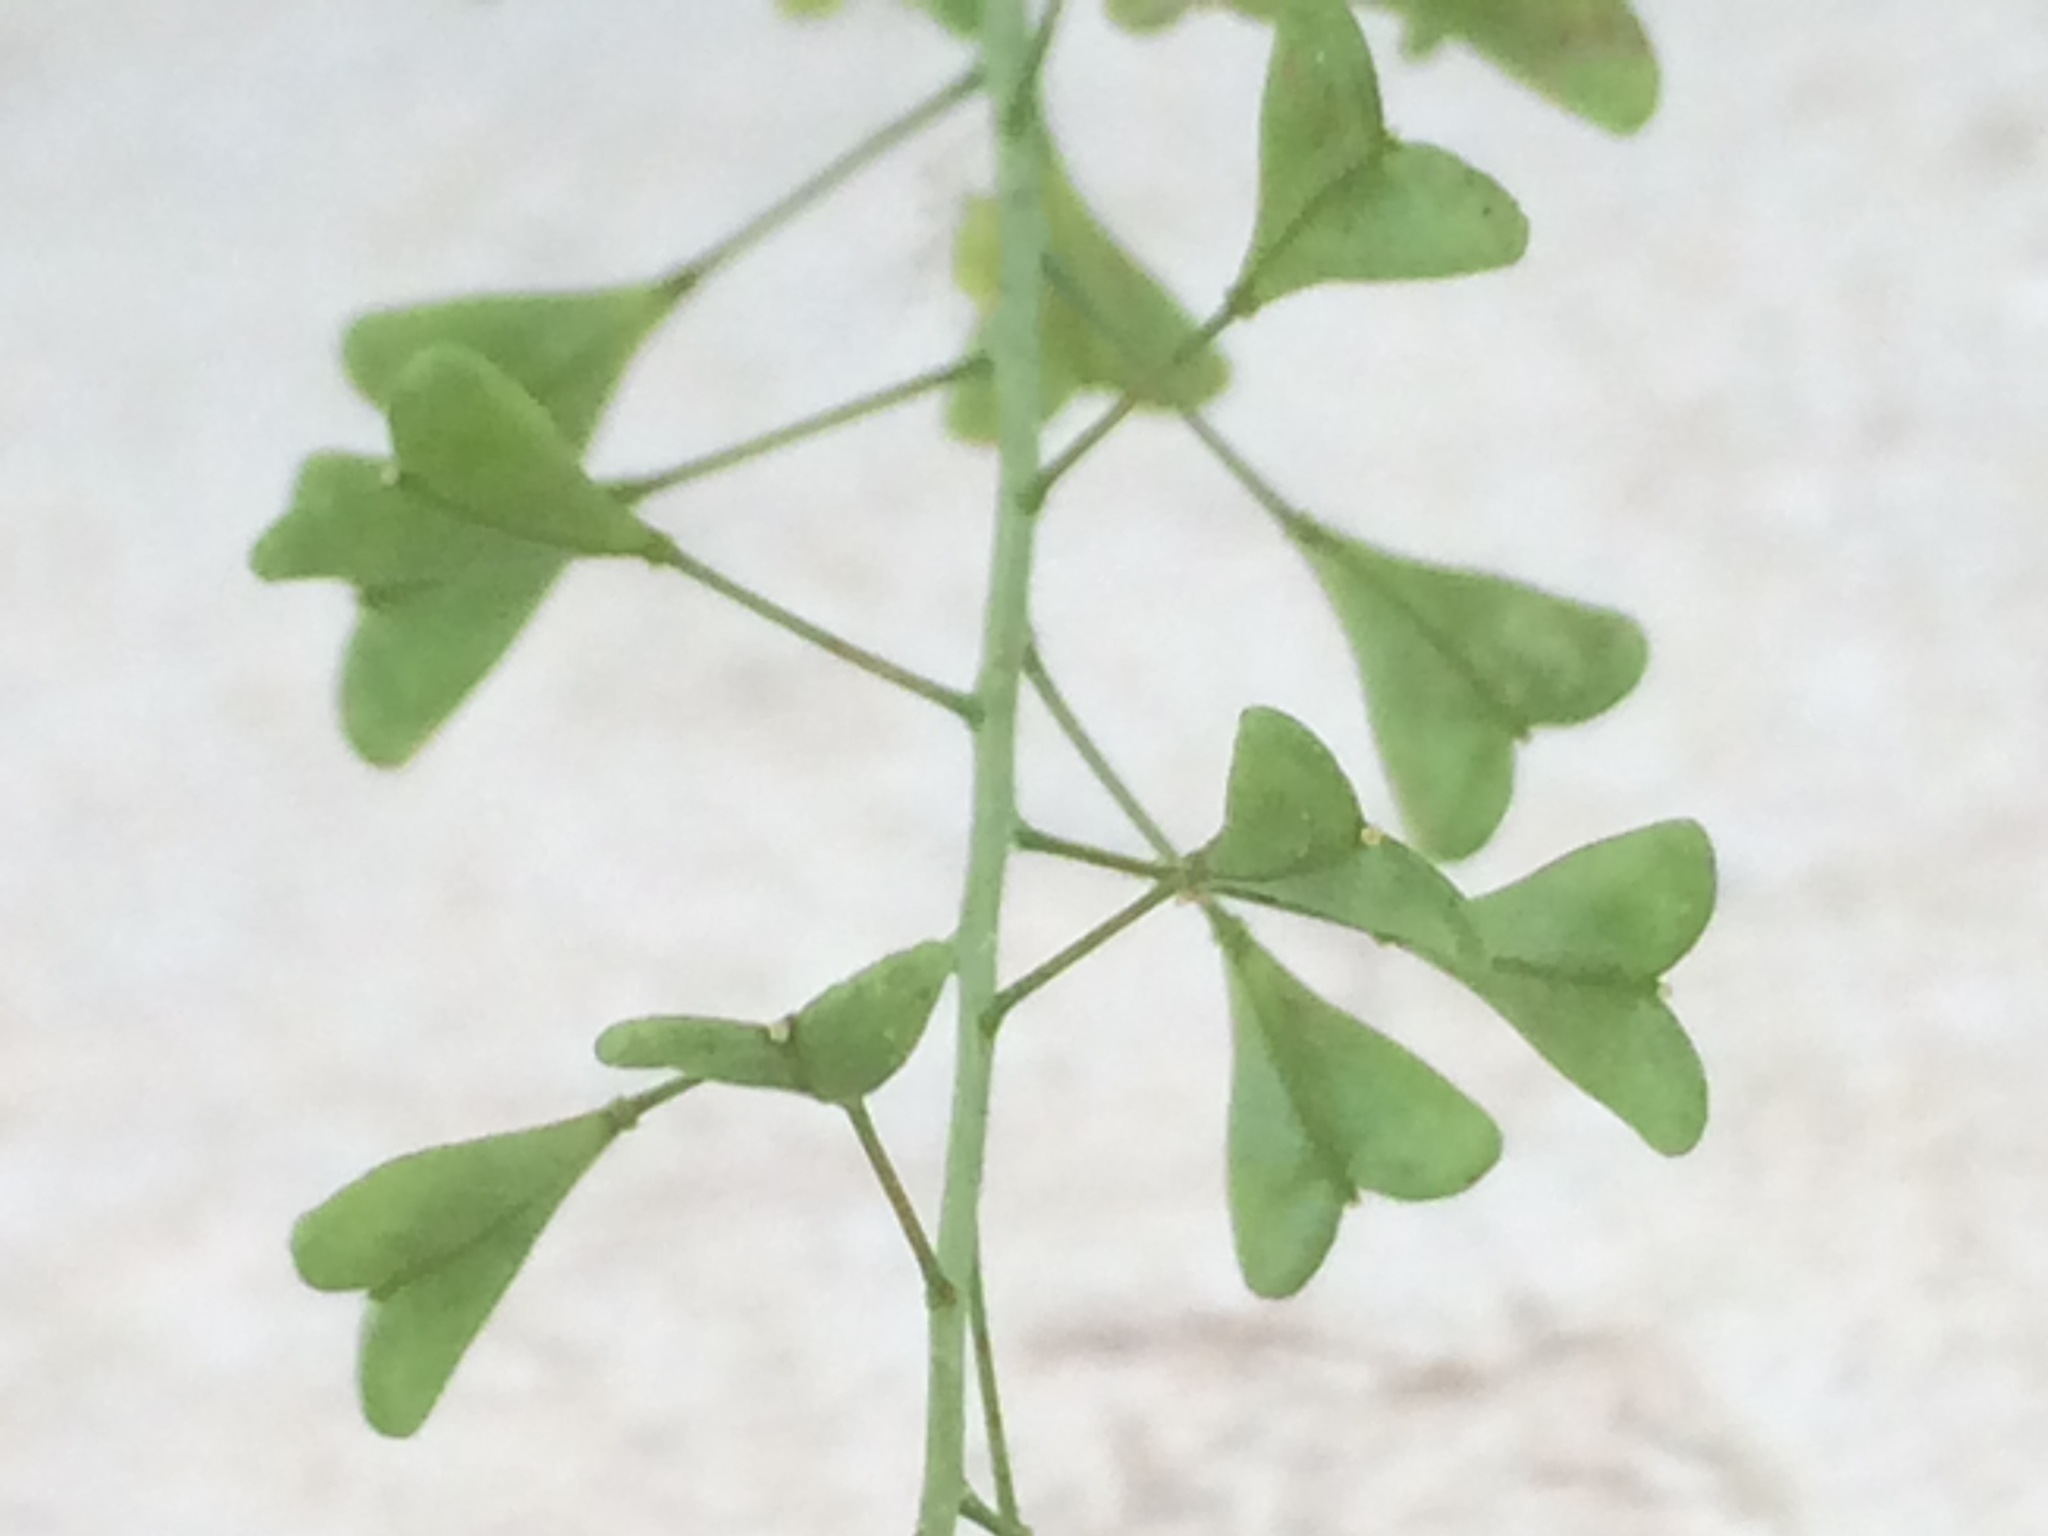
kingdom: Plantae
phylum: Tracheophyta
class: Magnoliopsida
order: Brassicales
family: Brassicaceae
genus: Capsella
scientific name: Capsella bursa-pastoris
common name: Shepherd's purse
